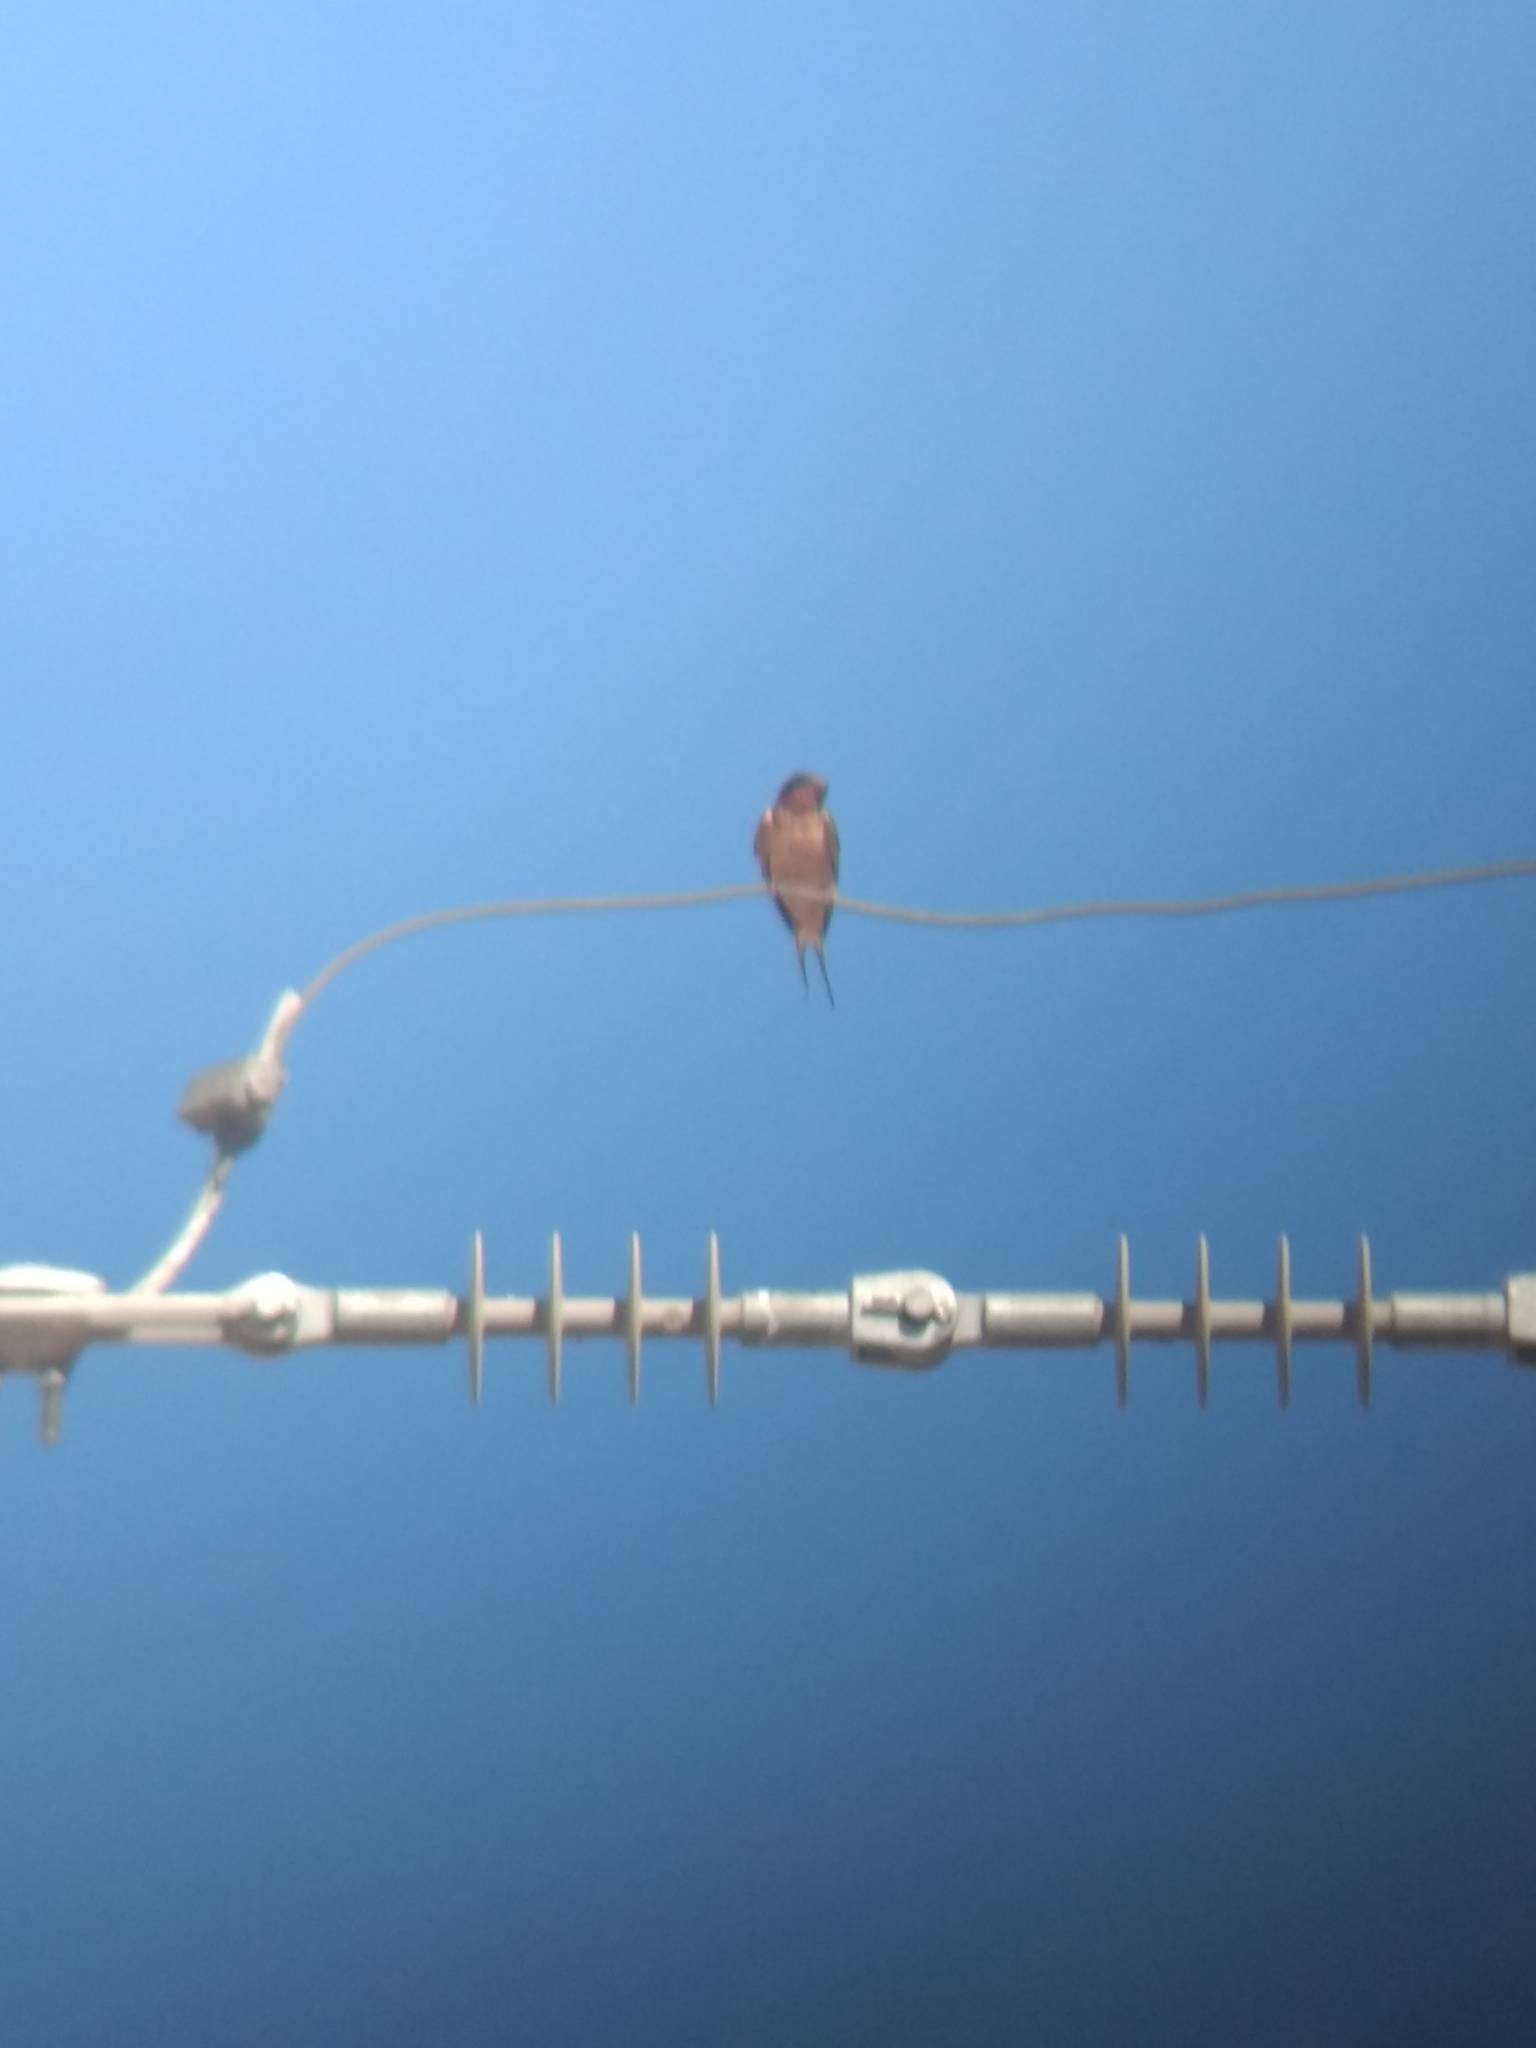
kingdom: Animalia
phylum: Chordata
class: Aves
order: Passeriformes
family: Hirundinidae
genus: Hirundo
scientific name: Hirundo rustica
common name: Barn swallow
